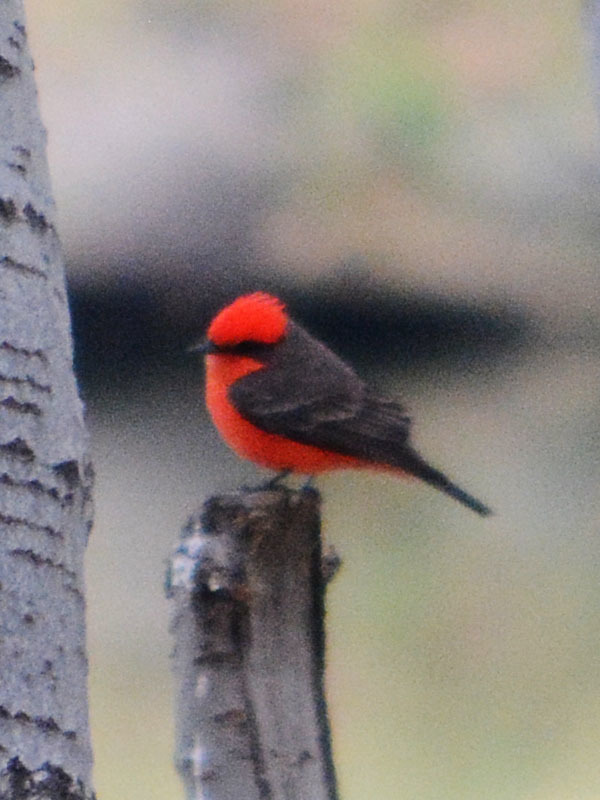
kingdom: Animalia
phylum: Chordata
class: Aves
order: Passeriformes
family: Tyrannidae
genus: Pyrocephalus
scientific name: Pyrocephalus rubinus
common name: Vermilion flycatcher
